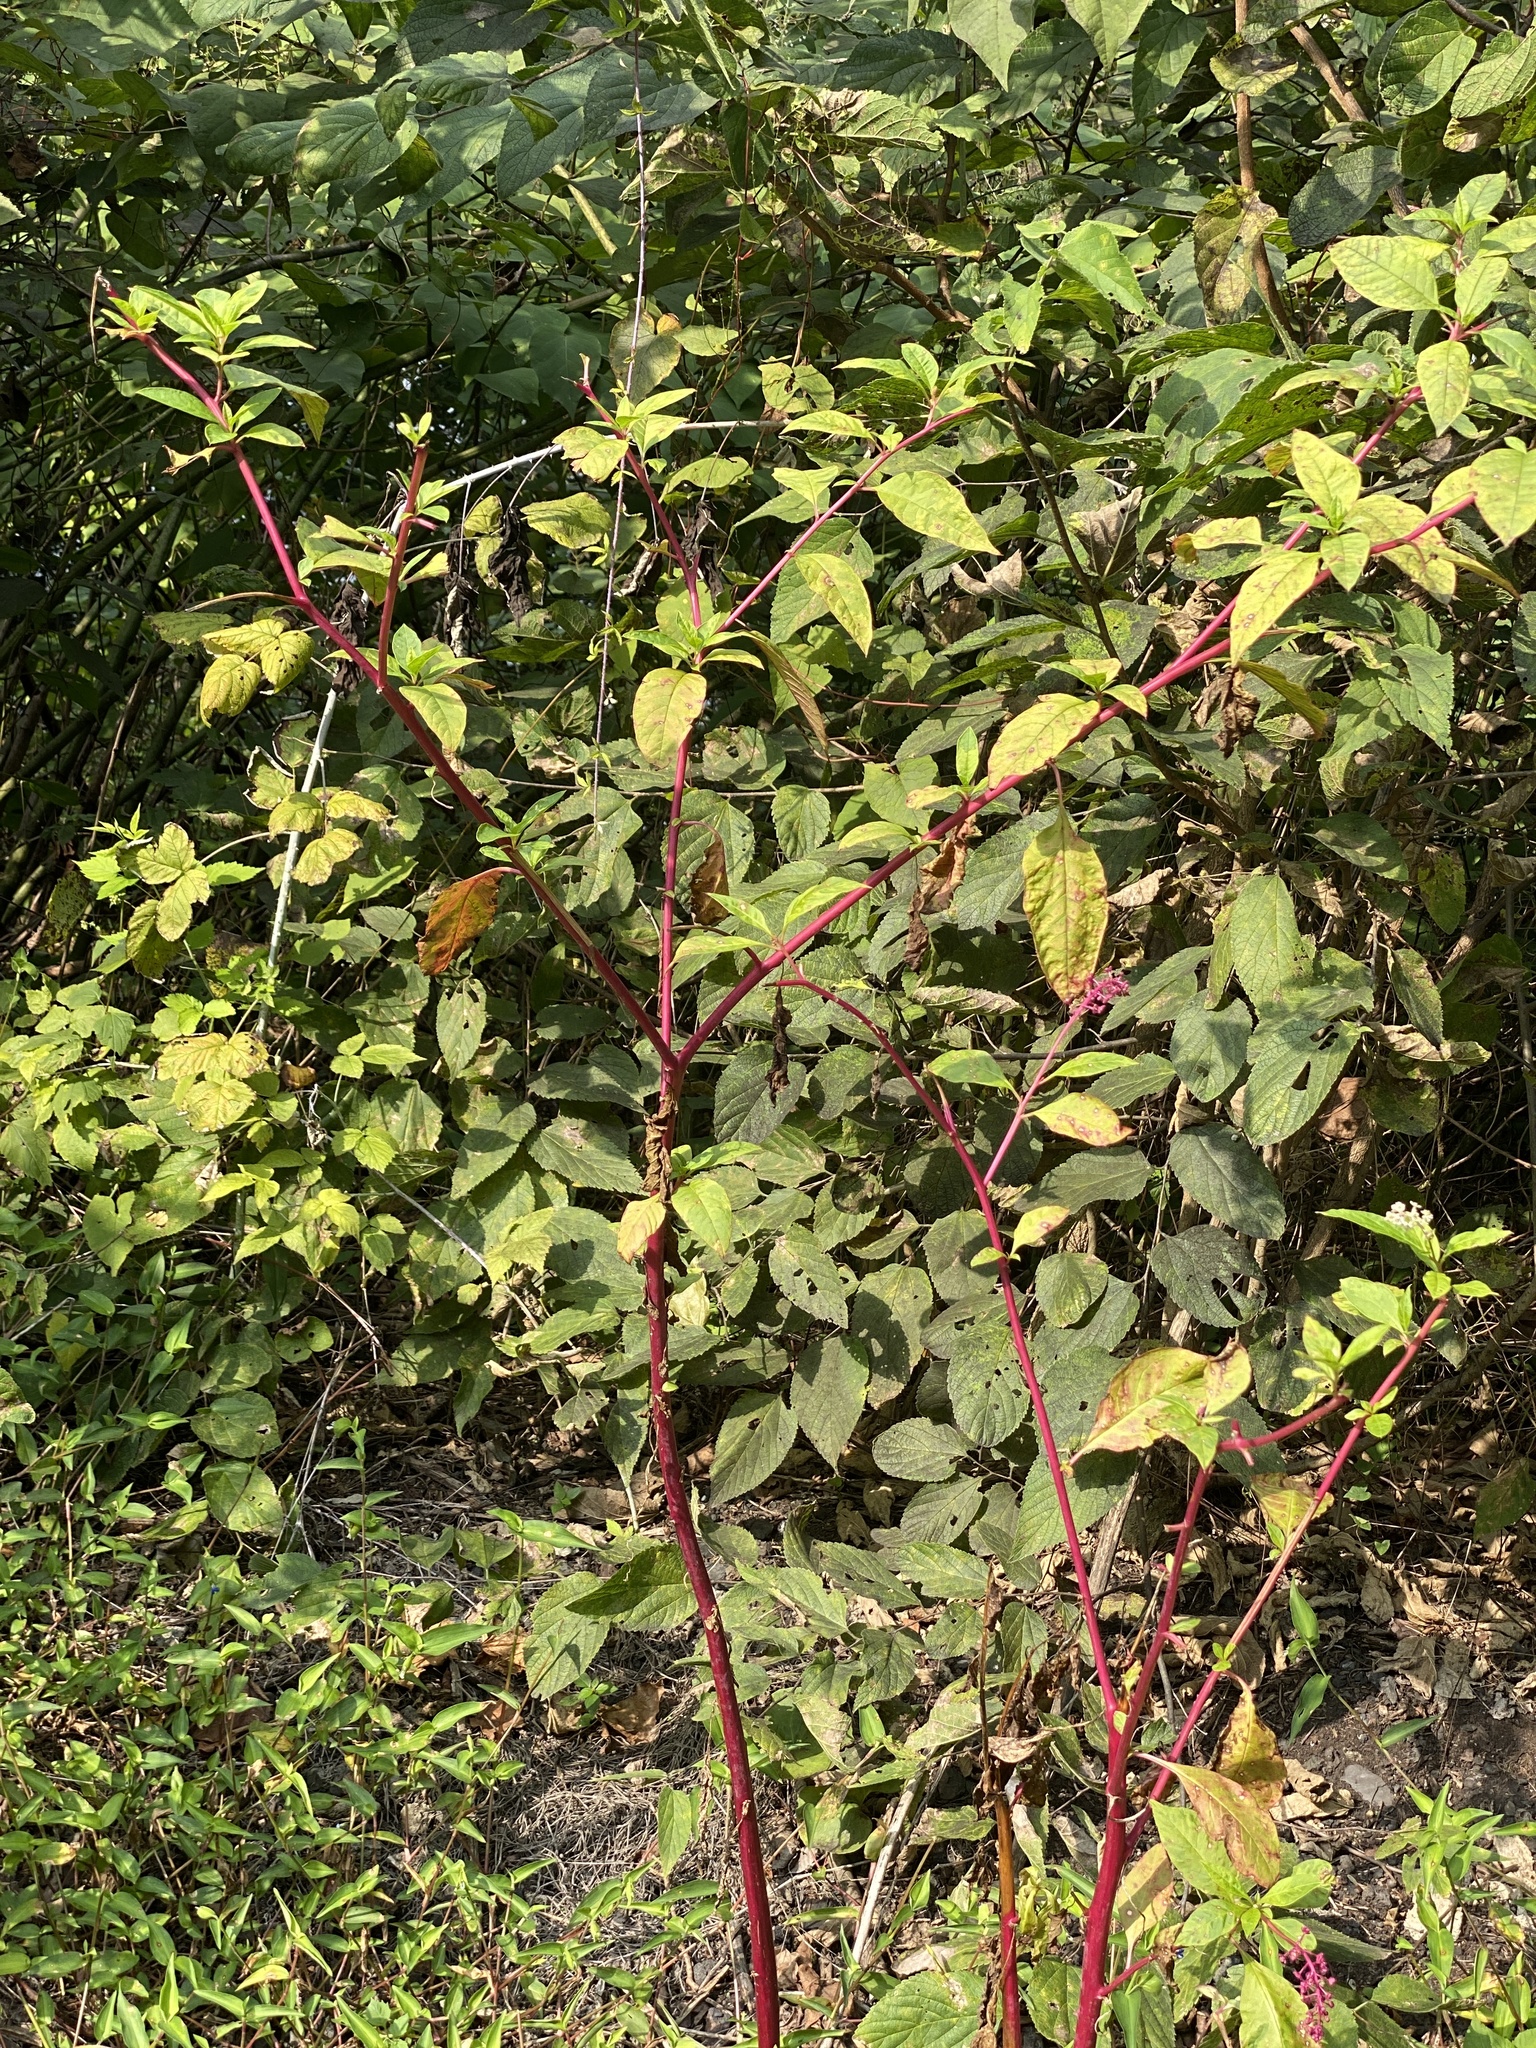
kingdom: Plantae
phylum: Tracheophyta
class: Magnoliopsida
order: Caryophyllales
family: Phytolaccaceae
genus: Phytolacca
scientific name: Phytolacca americana
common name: American pokeweed
